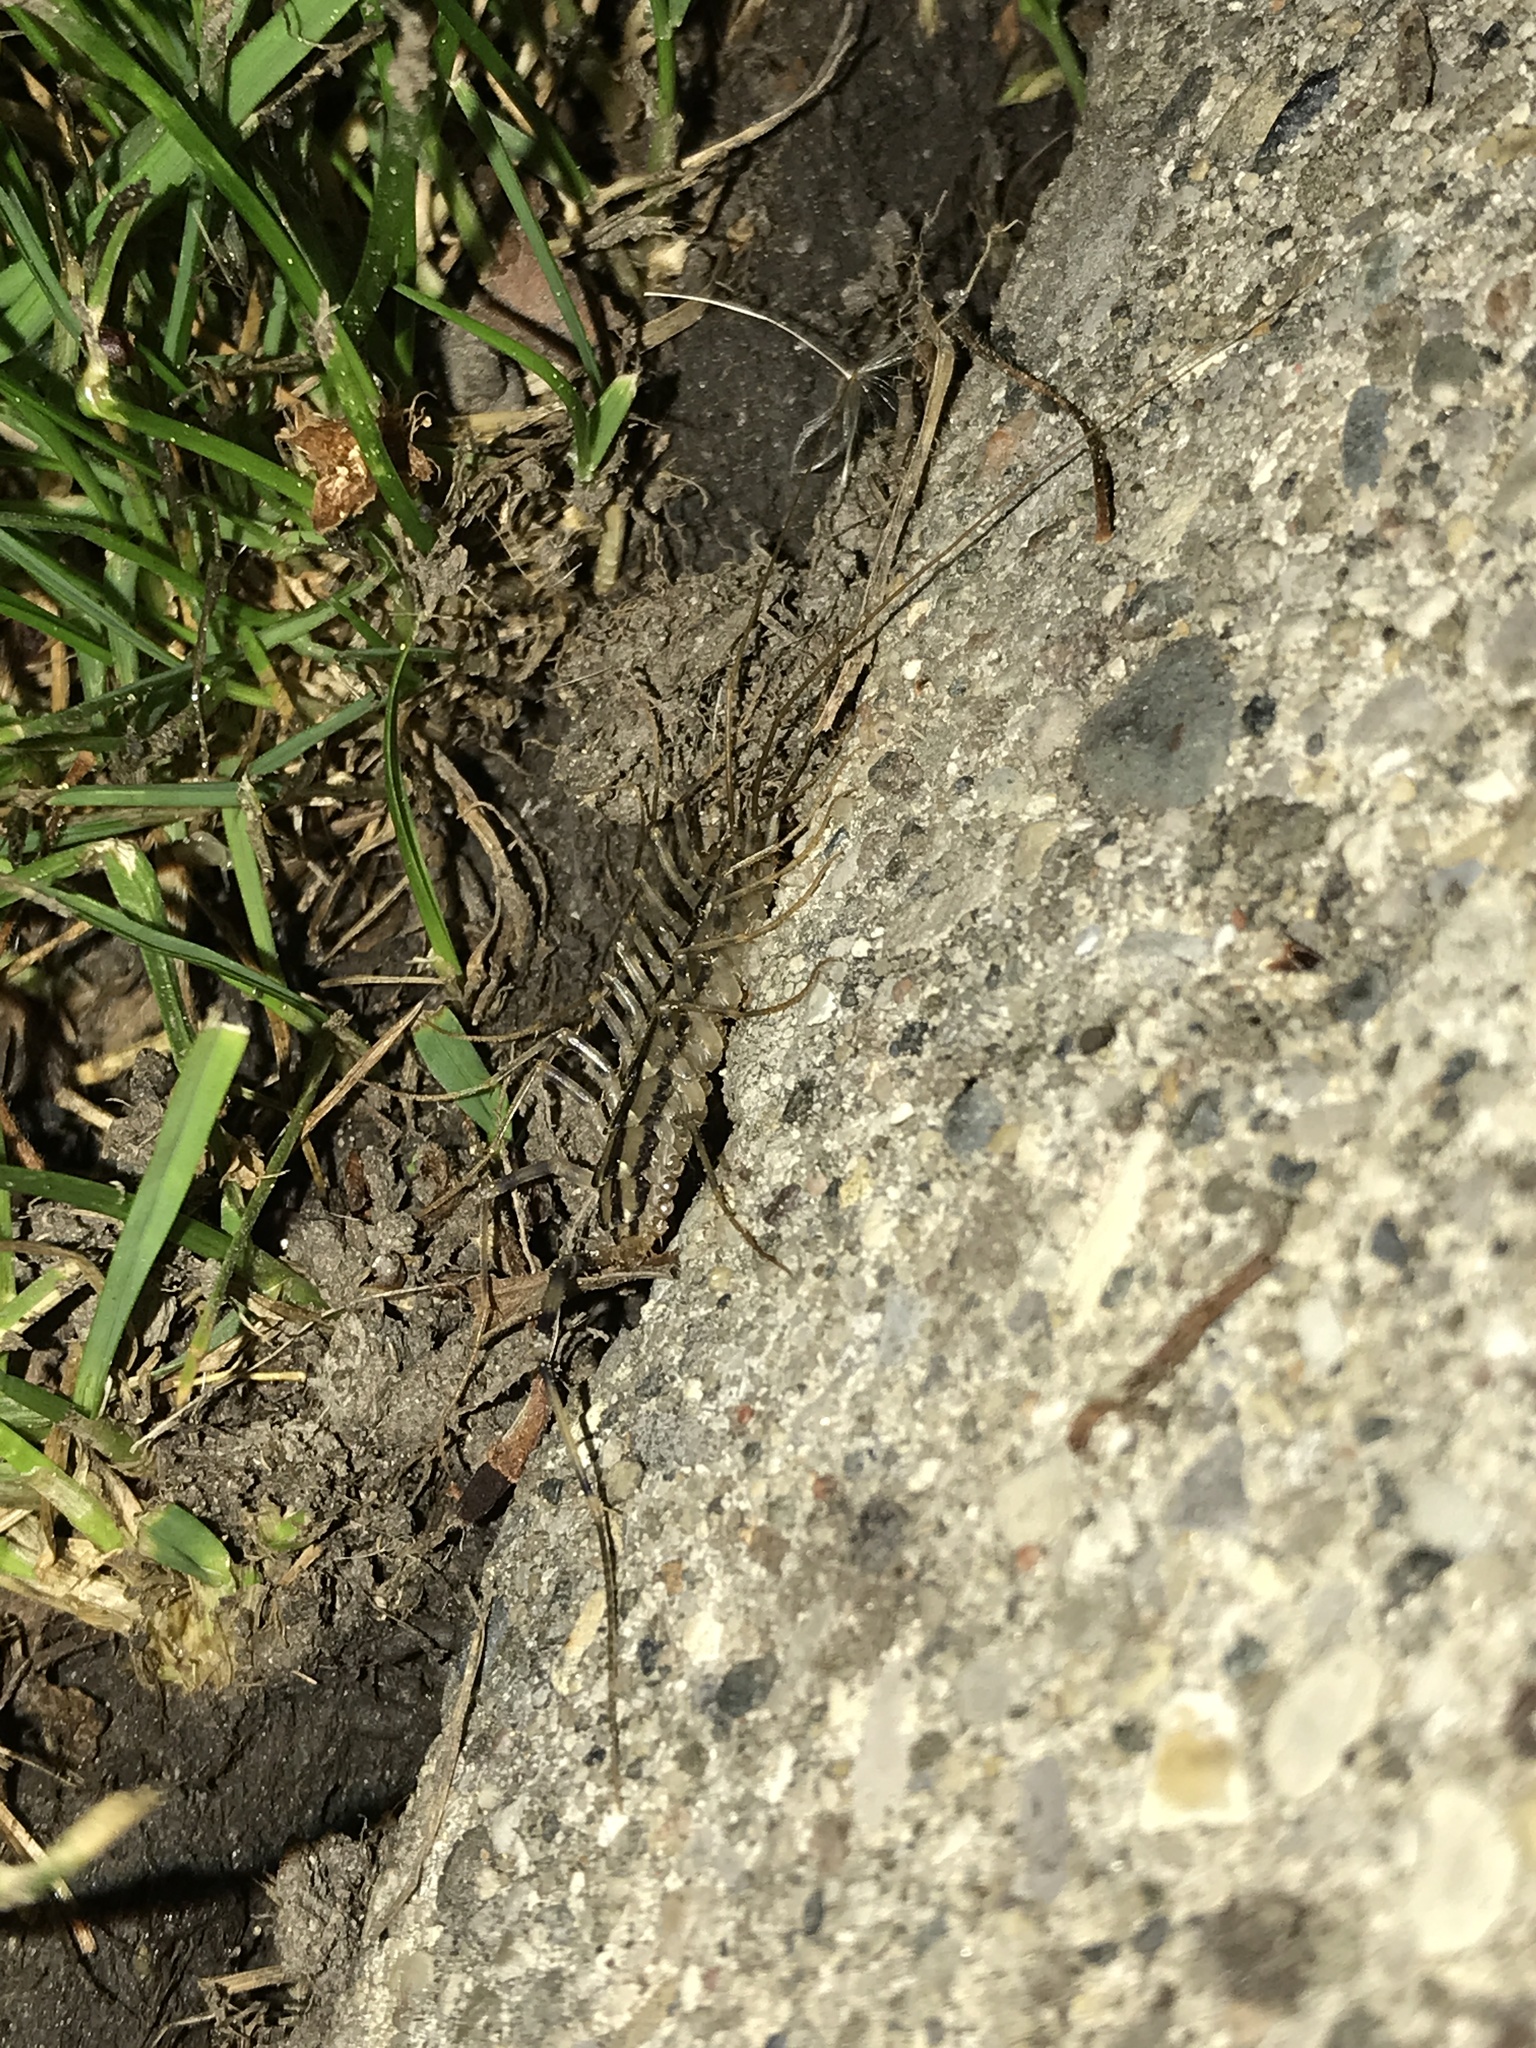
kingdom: Animalia
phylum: Arthropoda
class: Chilopoda
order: Scutigeromorpha
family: Scutigeridae
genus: Scutigera
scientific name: Scutigera coleoptrata
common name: House centipede
